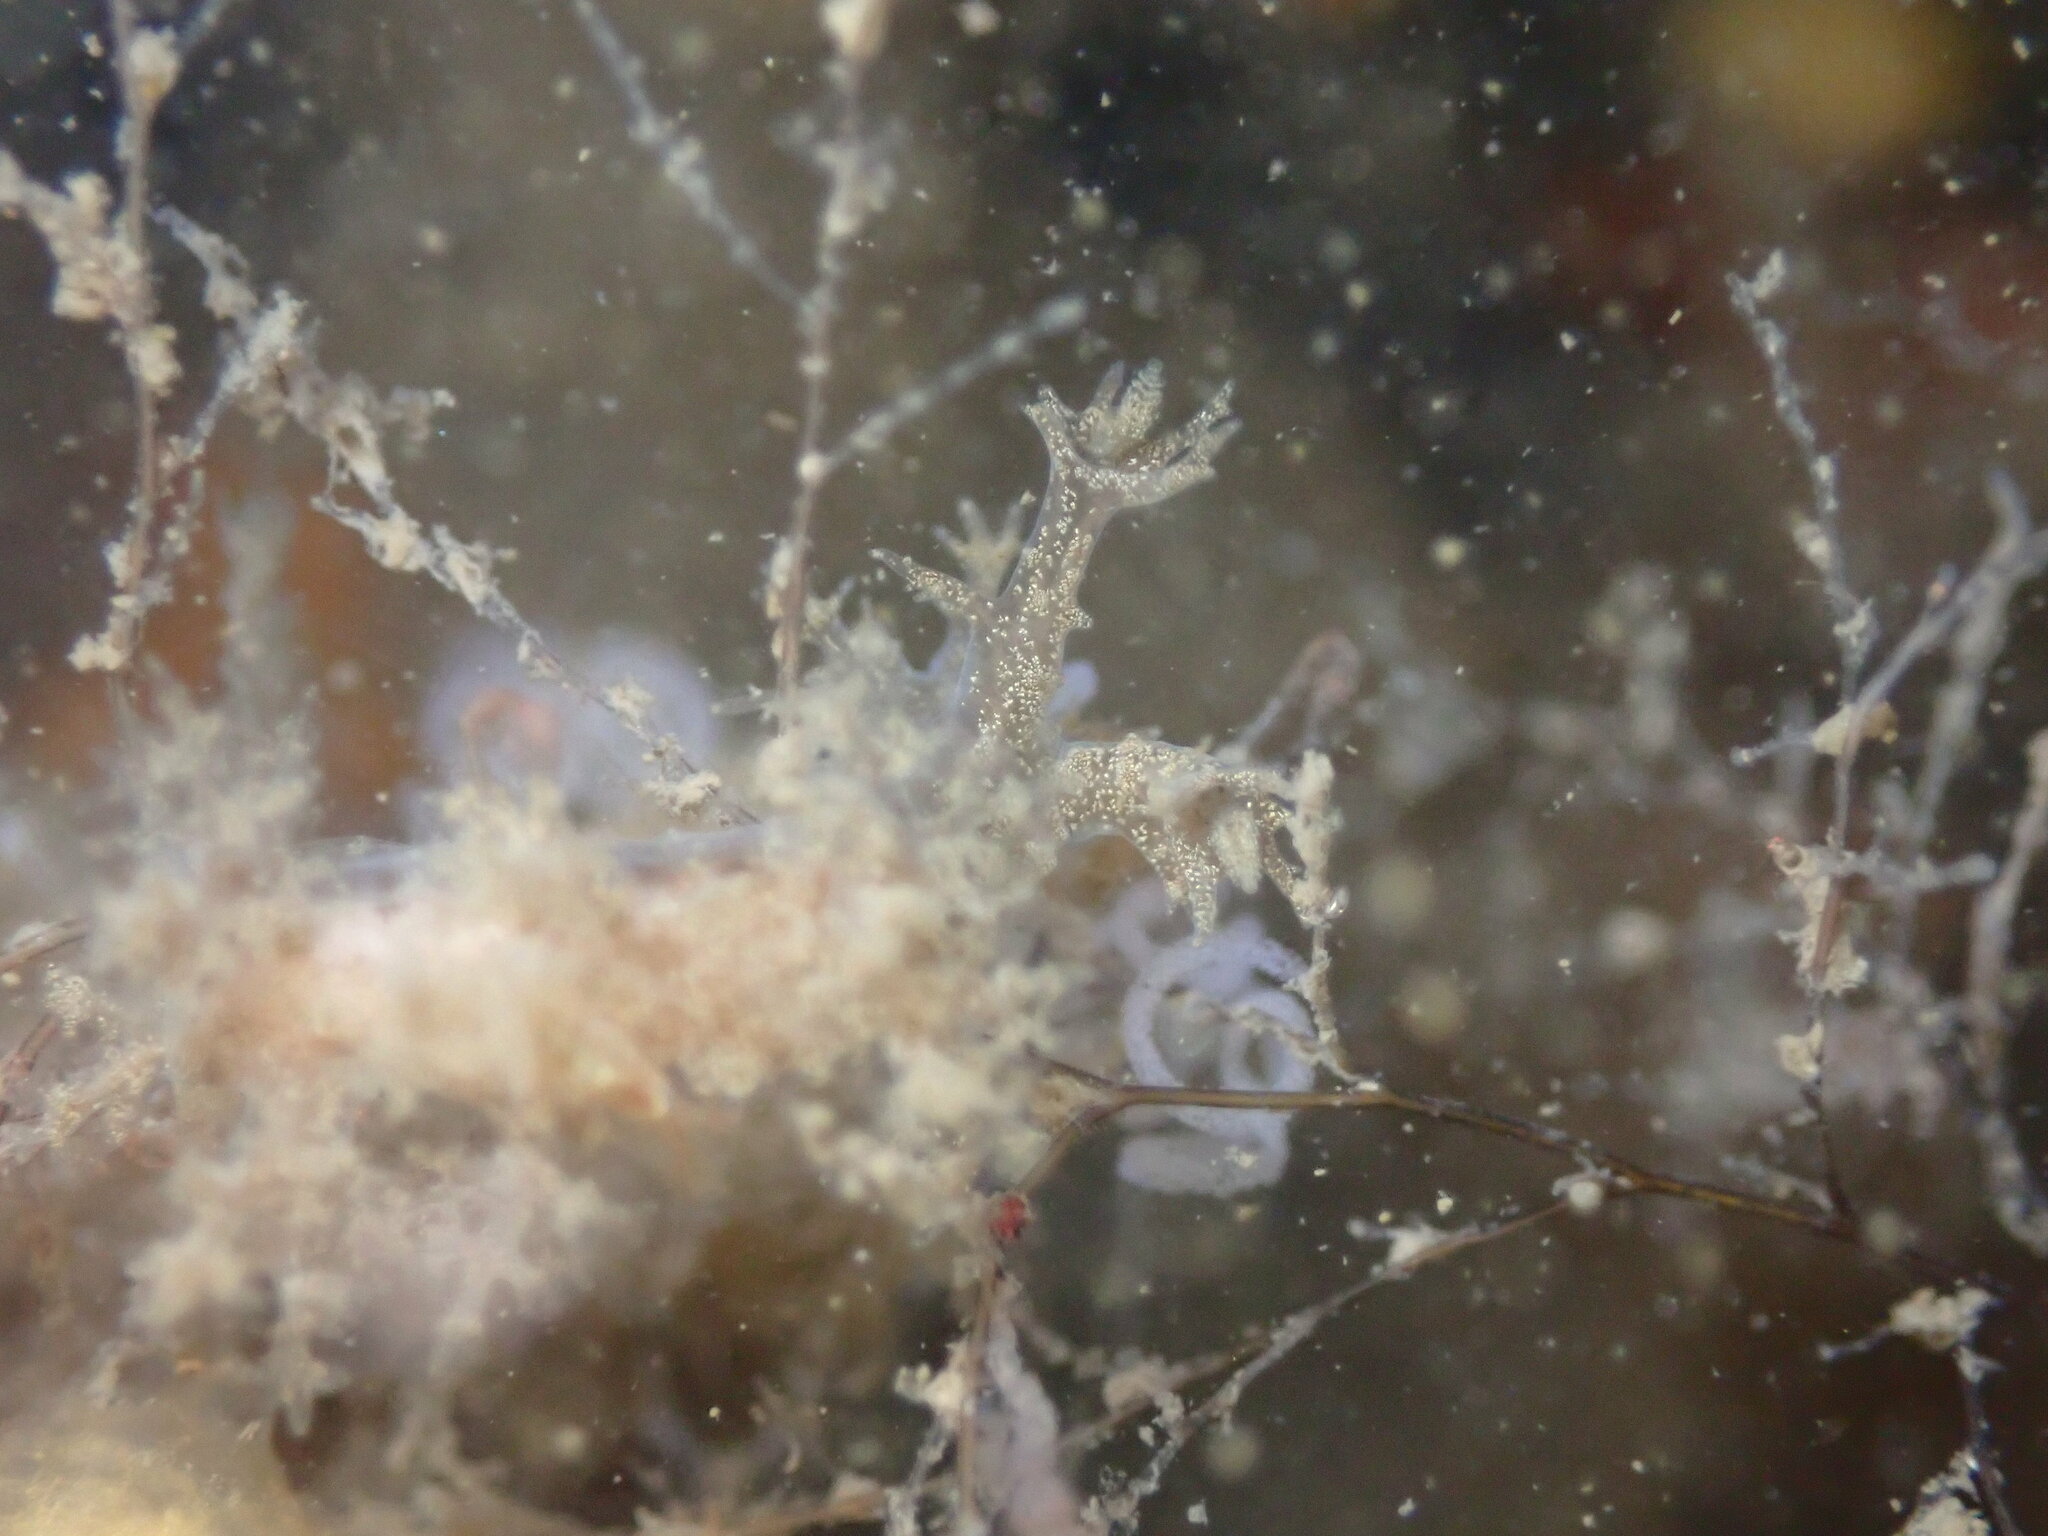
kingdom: Animalia
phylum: Mollusca
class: Gastropoda
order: Nudibranchia
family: Dendronotidae
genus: Dendronotus
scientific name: Dendronotus venustus
